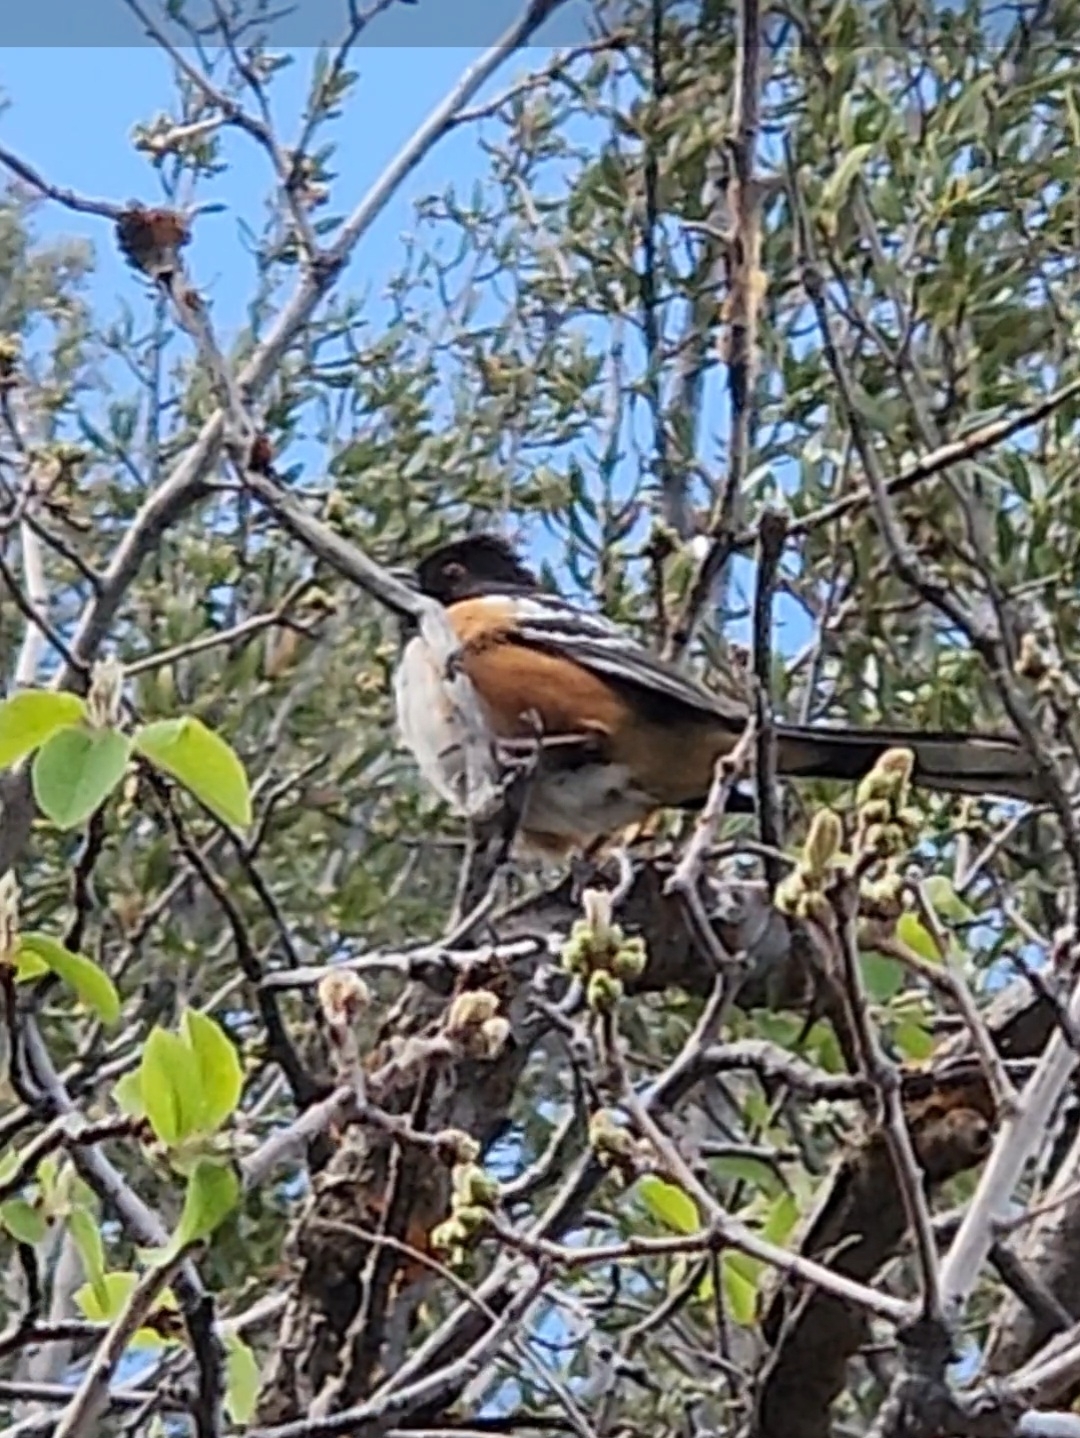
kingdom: Animalia
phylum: Chordata
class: Aves
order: Passeriformes
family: Passerellidae
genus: Pipilo
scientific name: Pipilo maculatus
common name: Spotted towhee
